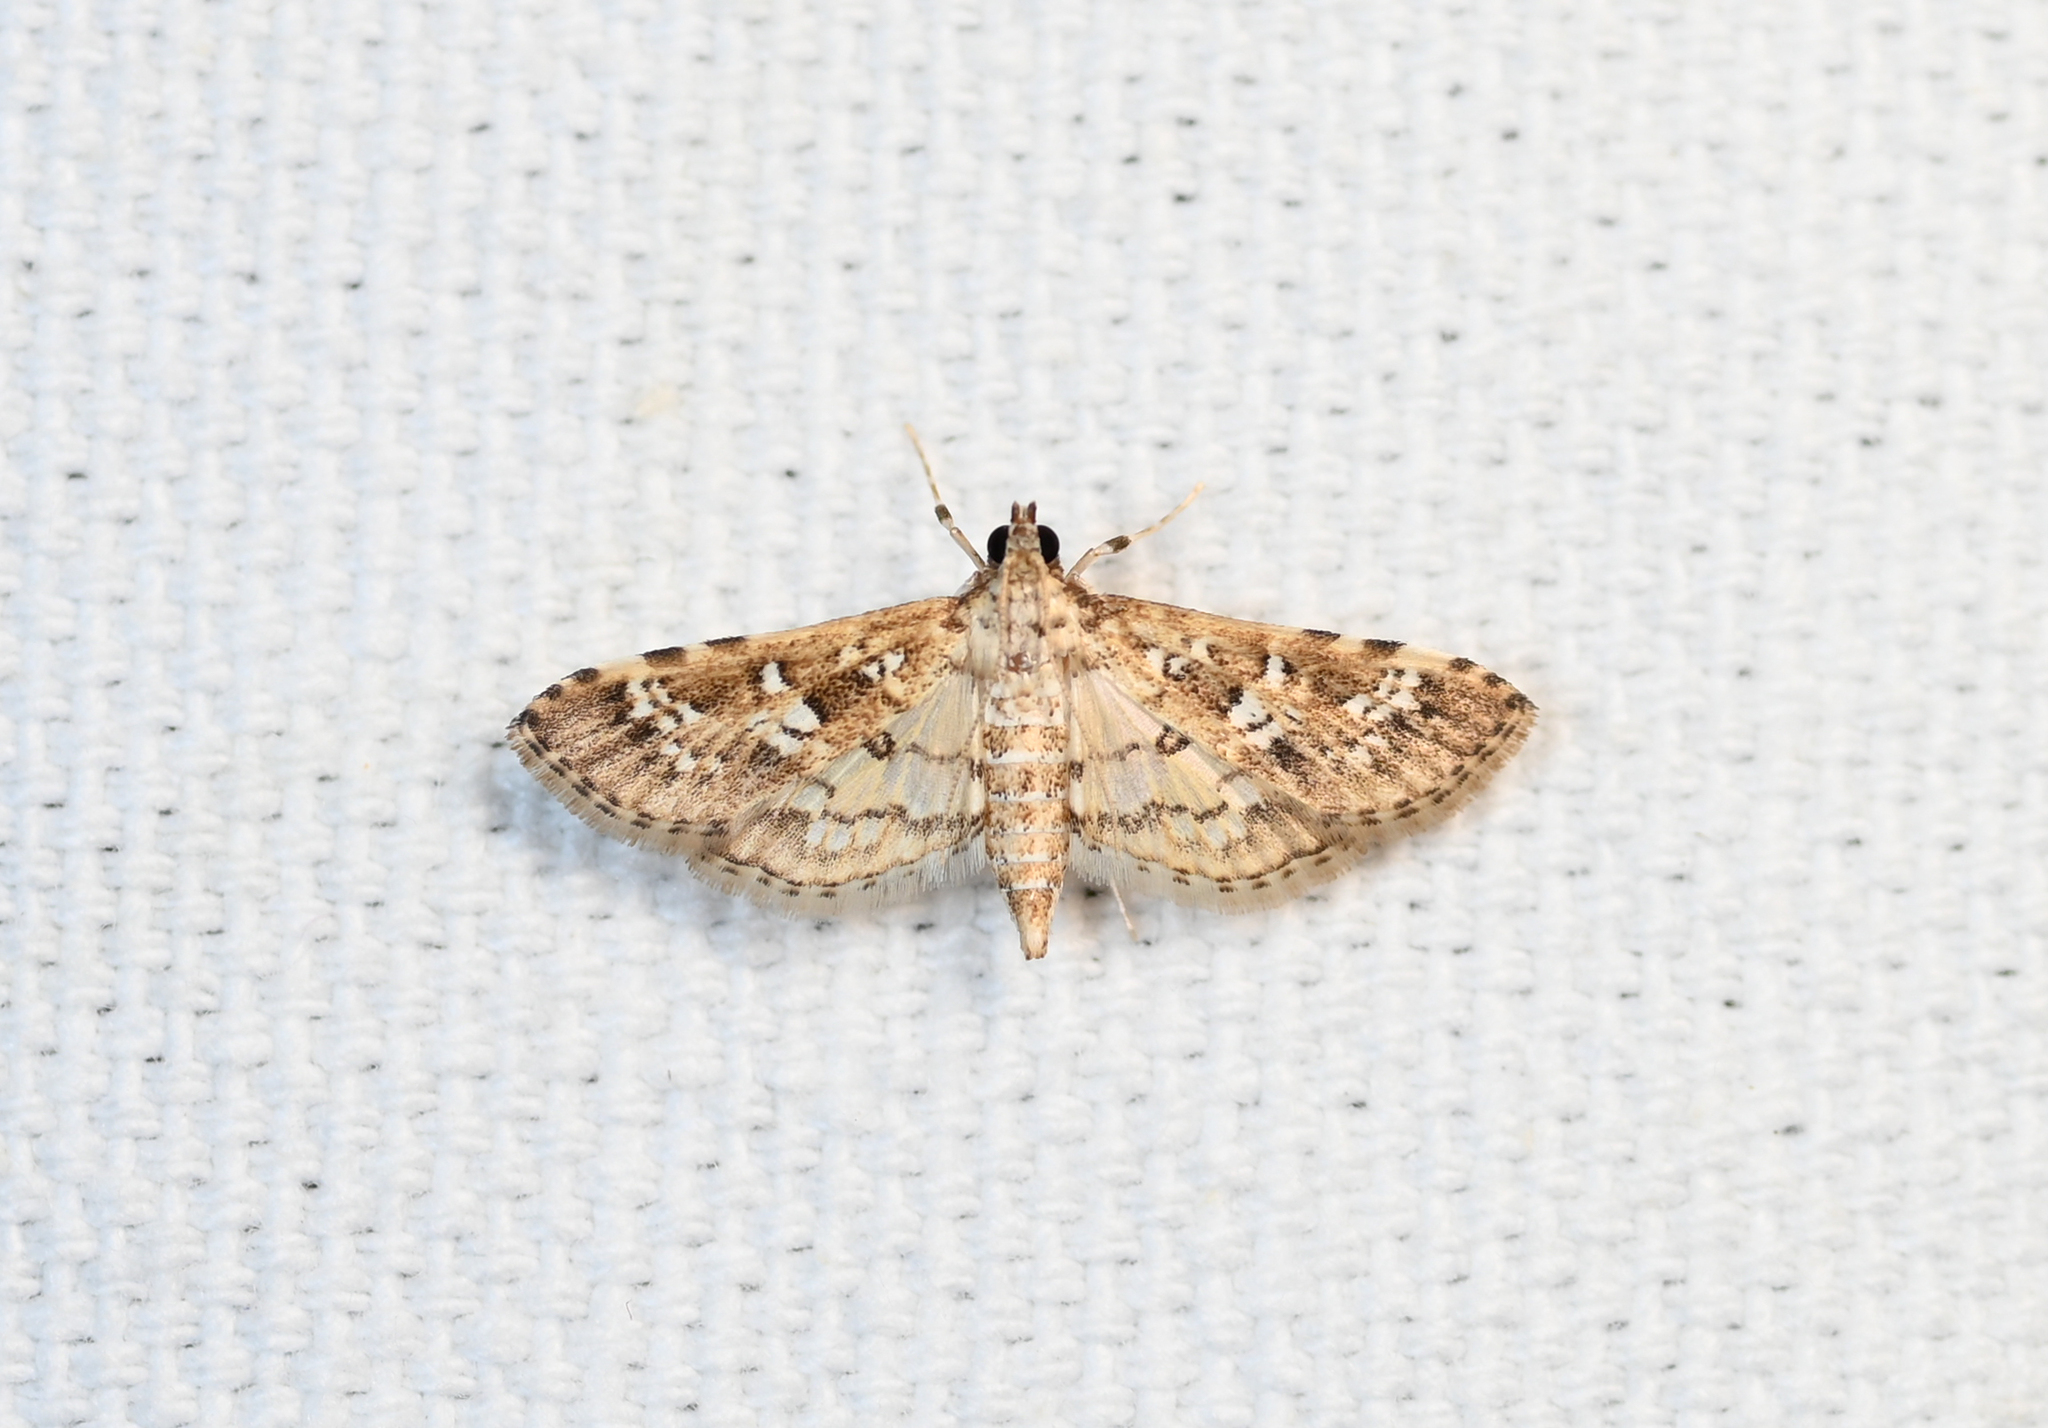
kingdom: Animalia
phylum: Arthropoda
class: Insecta
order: Lepidoptera
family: Crambidae
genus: Samea
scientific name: Samea multiplicalis
